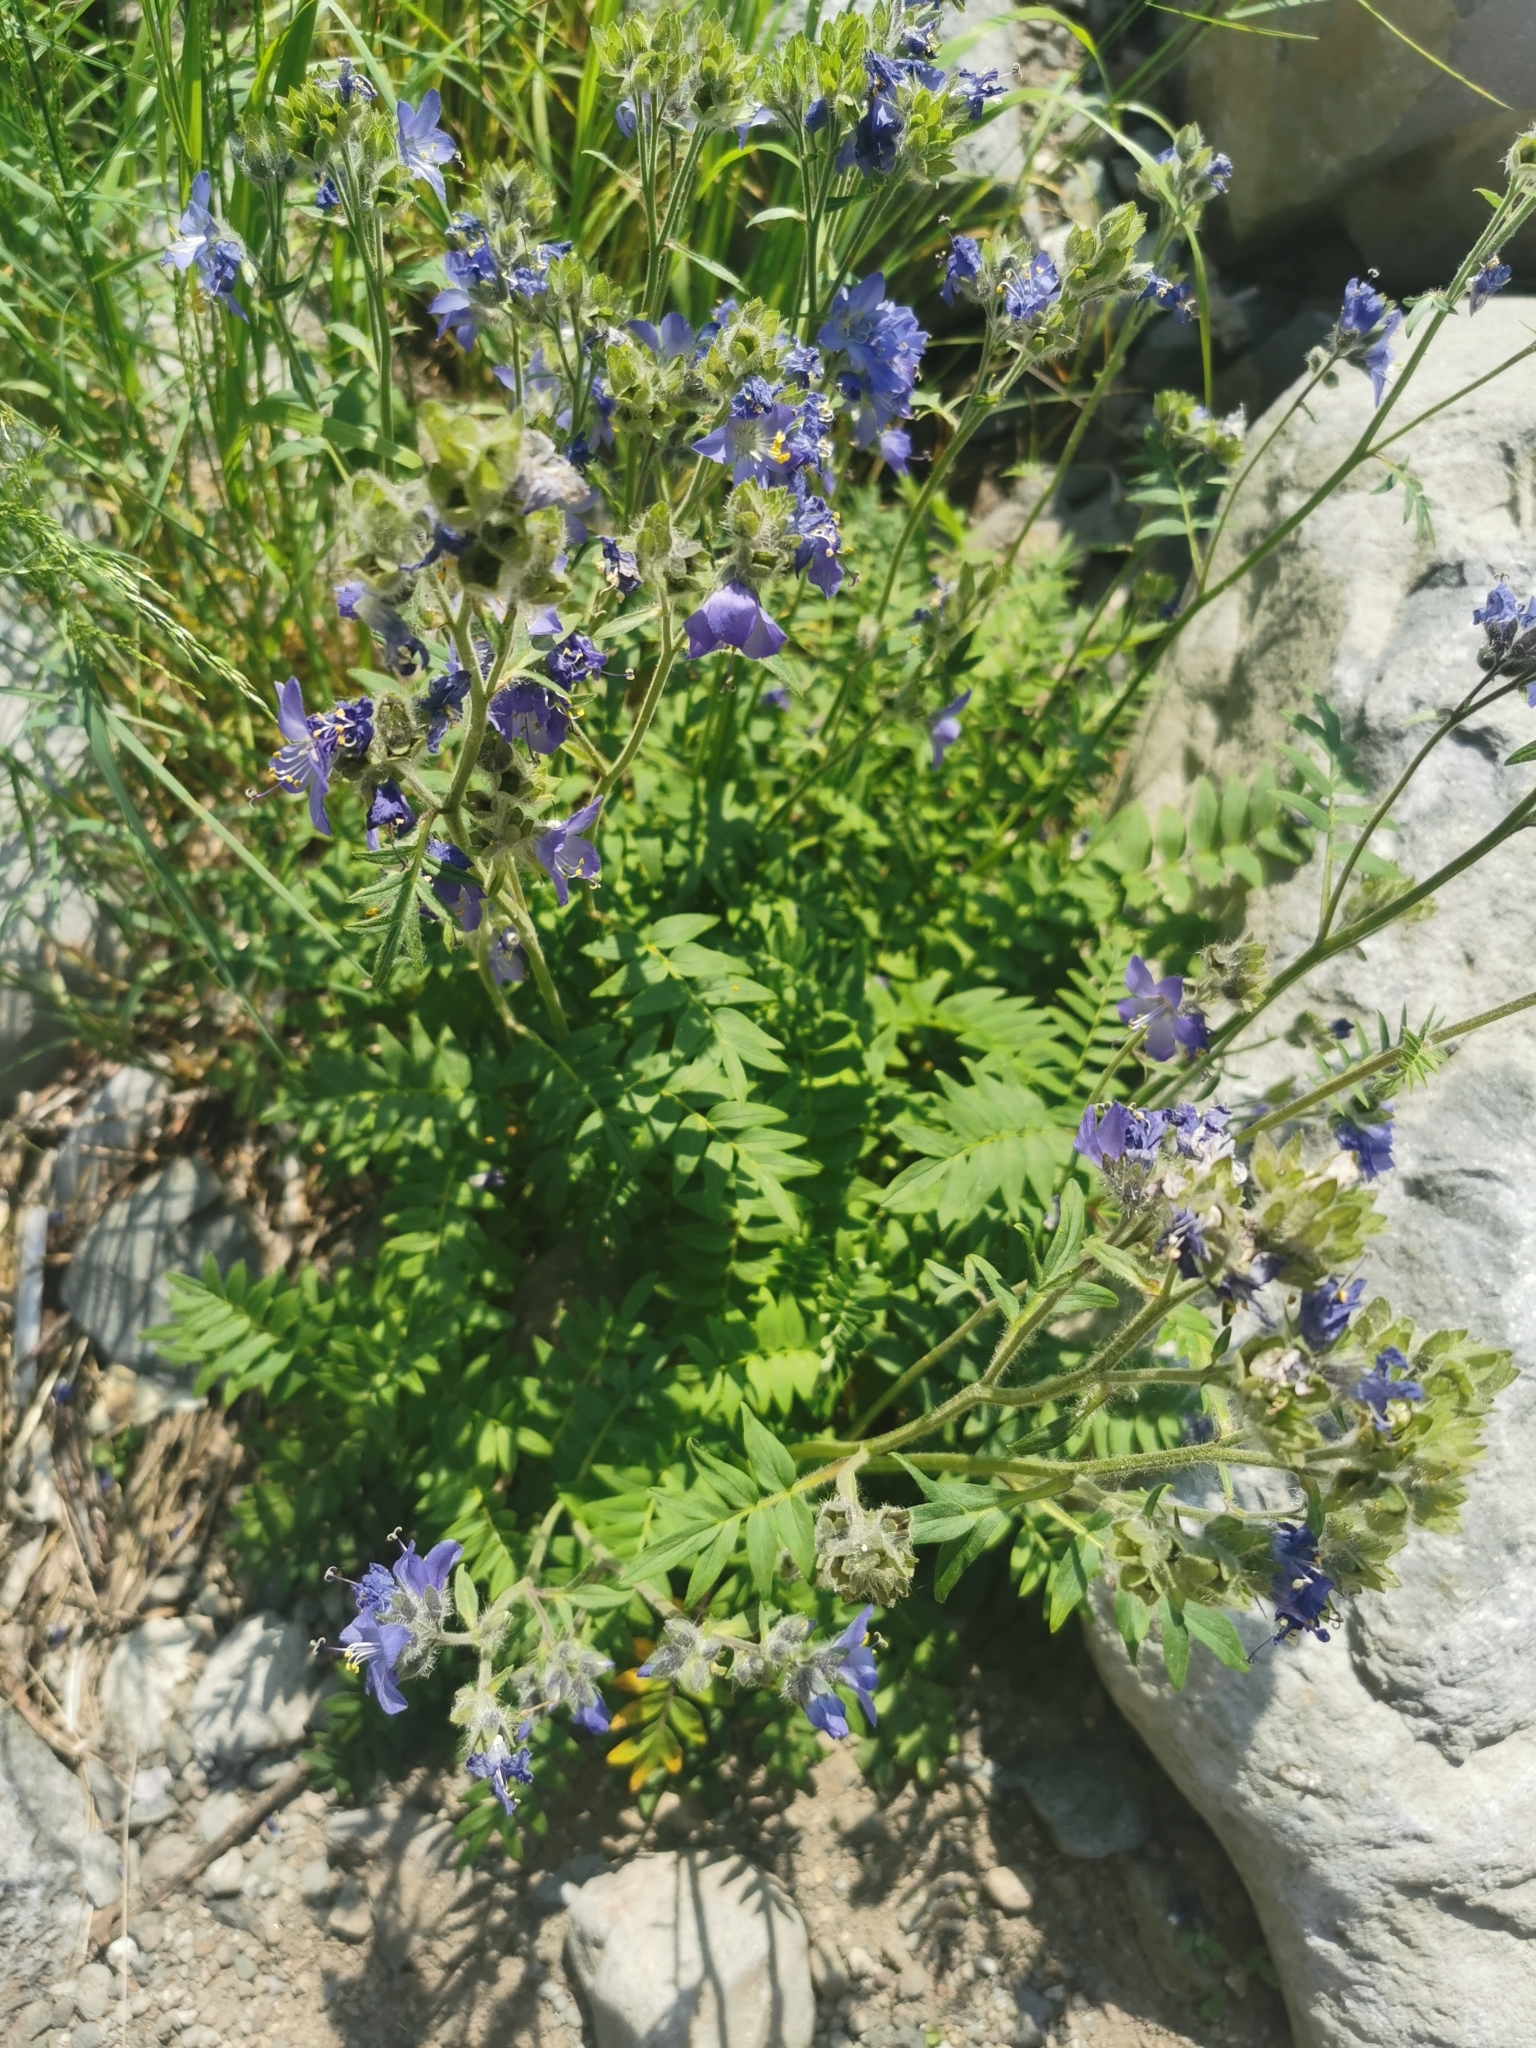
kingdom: Plantae
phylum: Tracheophyta
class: Magnoliopsida
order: Ericales
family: Polemoniaceae
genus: Polemonium
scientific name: Polemonium acutiflorum
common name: Tall jacob's-ladder
